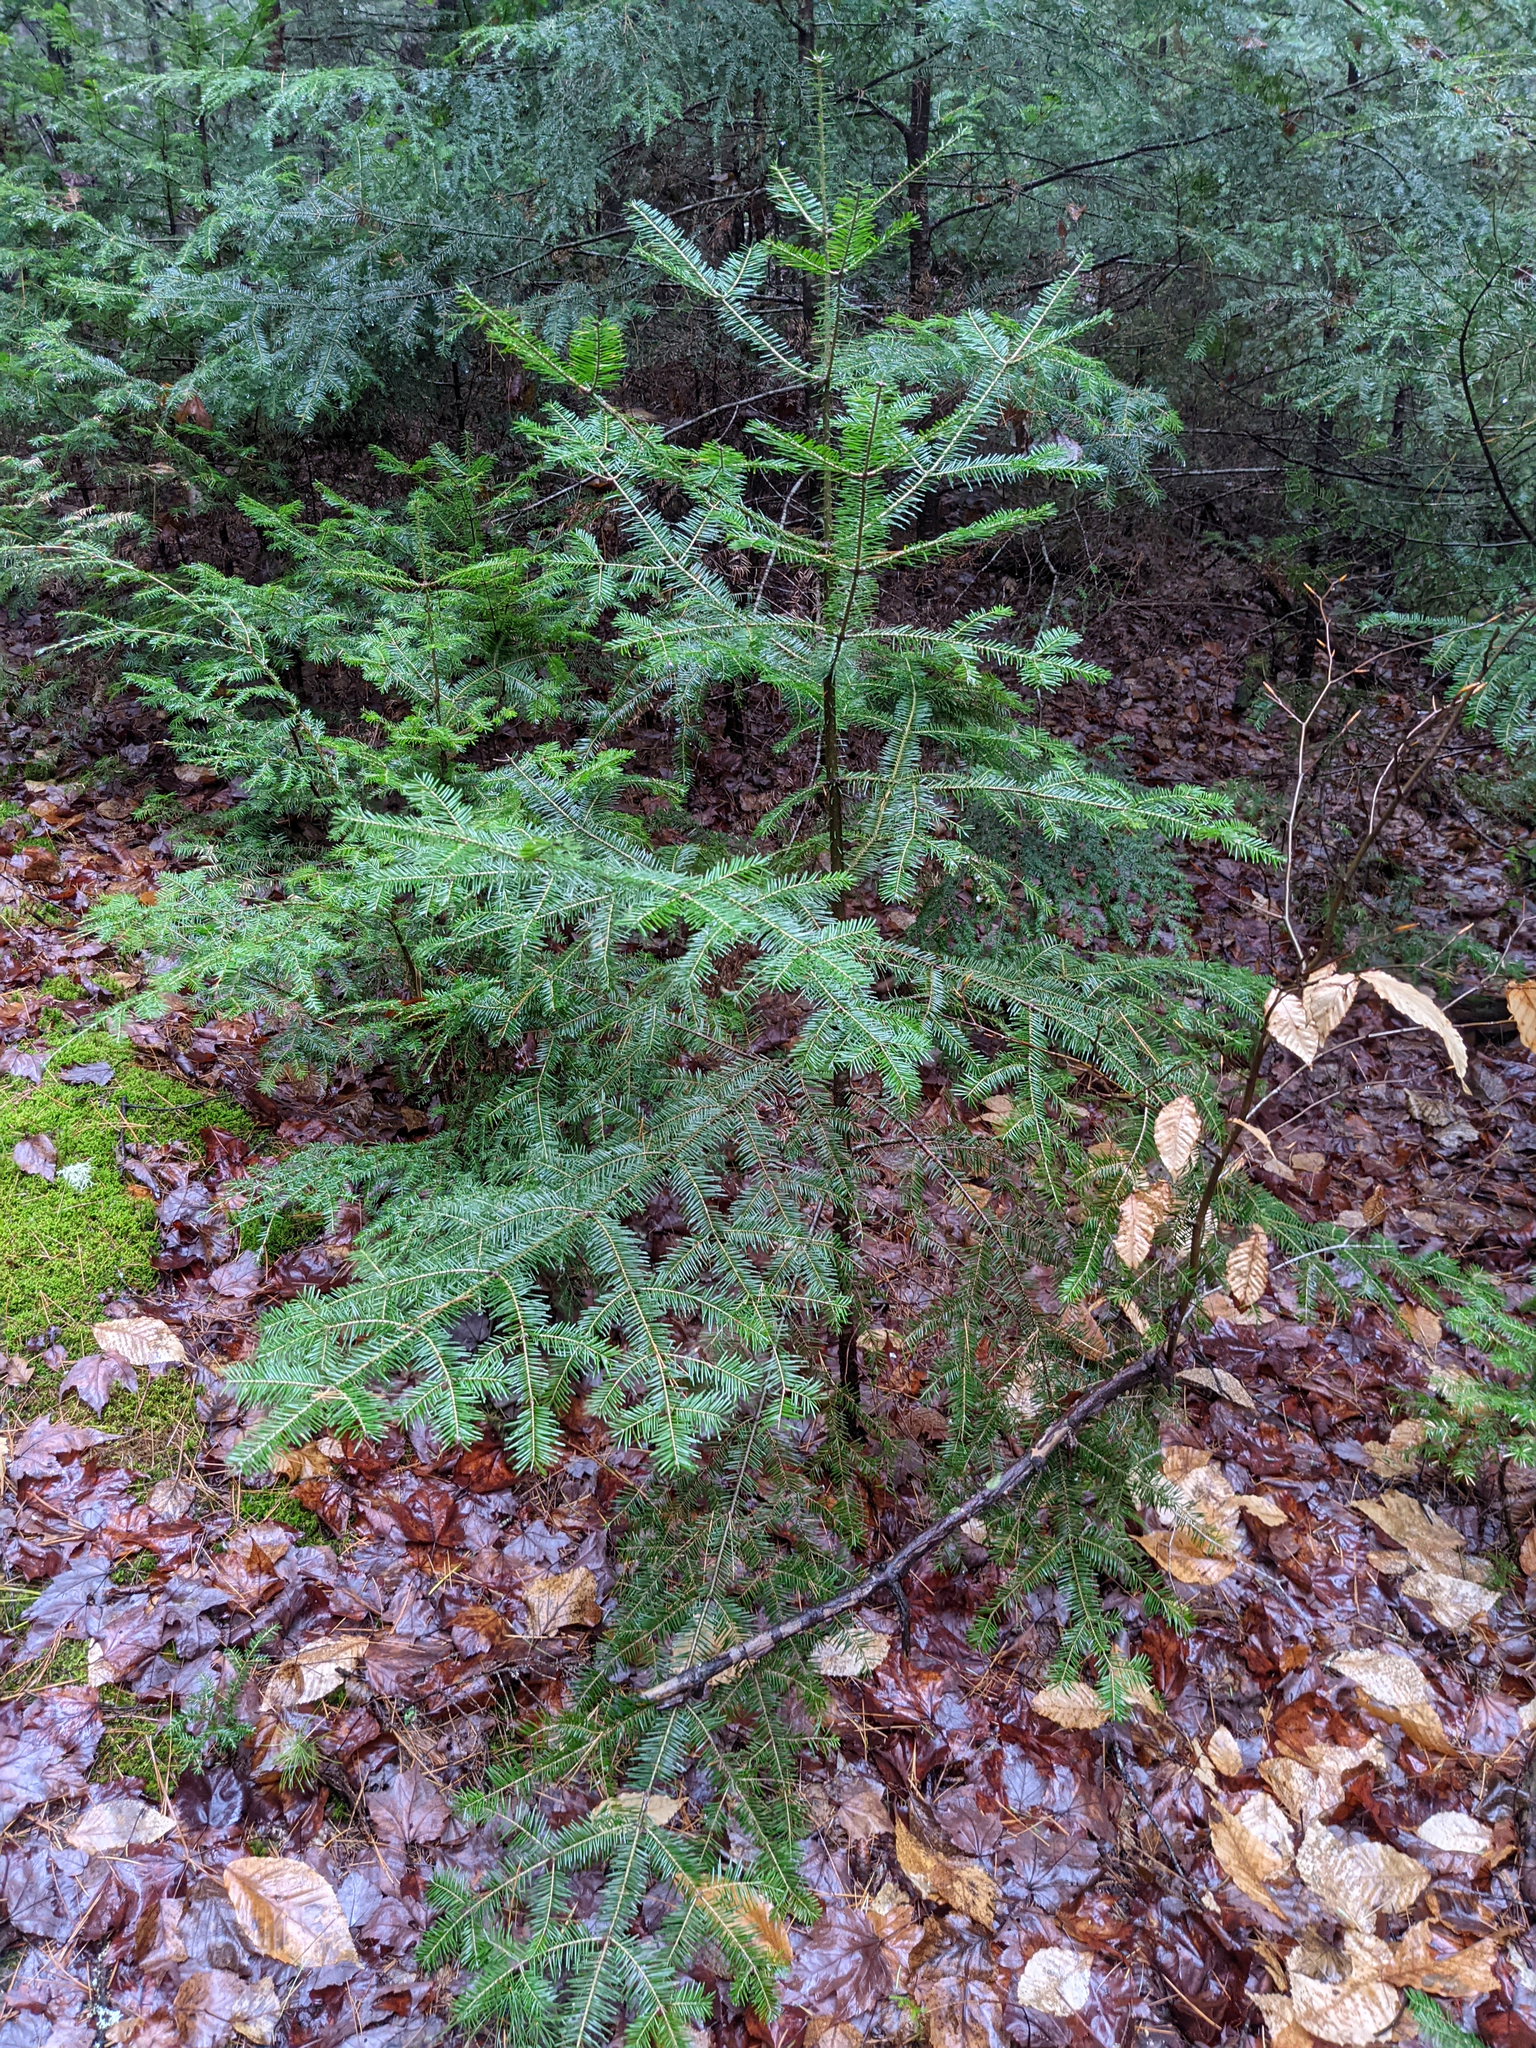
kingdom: Plantae
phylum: Tracheophyta
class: Pinopsida
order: Pinales
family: Pinaceae
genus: Abies
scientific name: Abies balsamea
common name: Balsam fir
